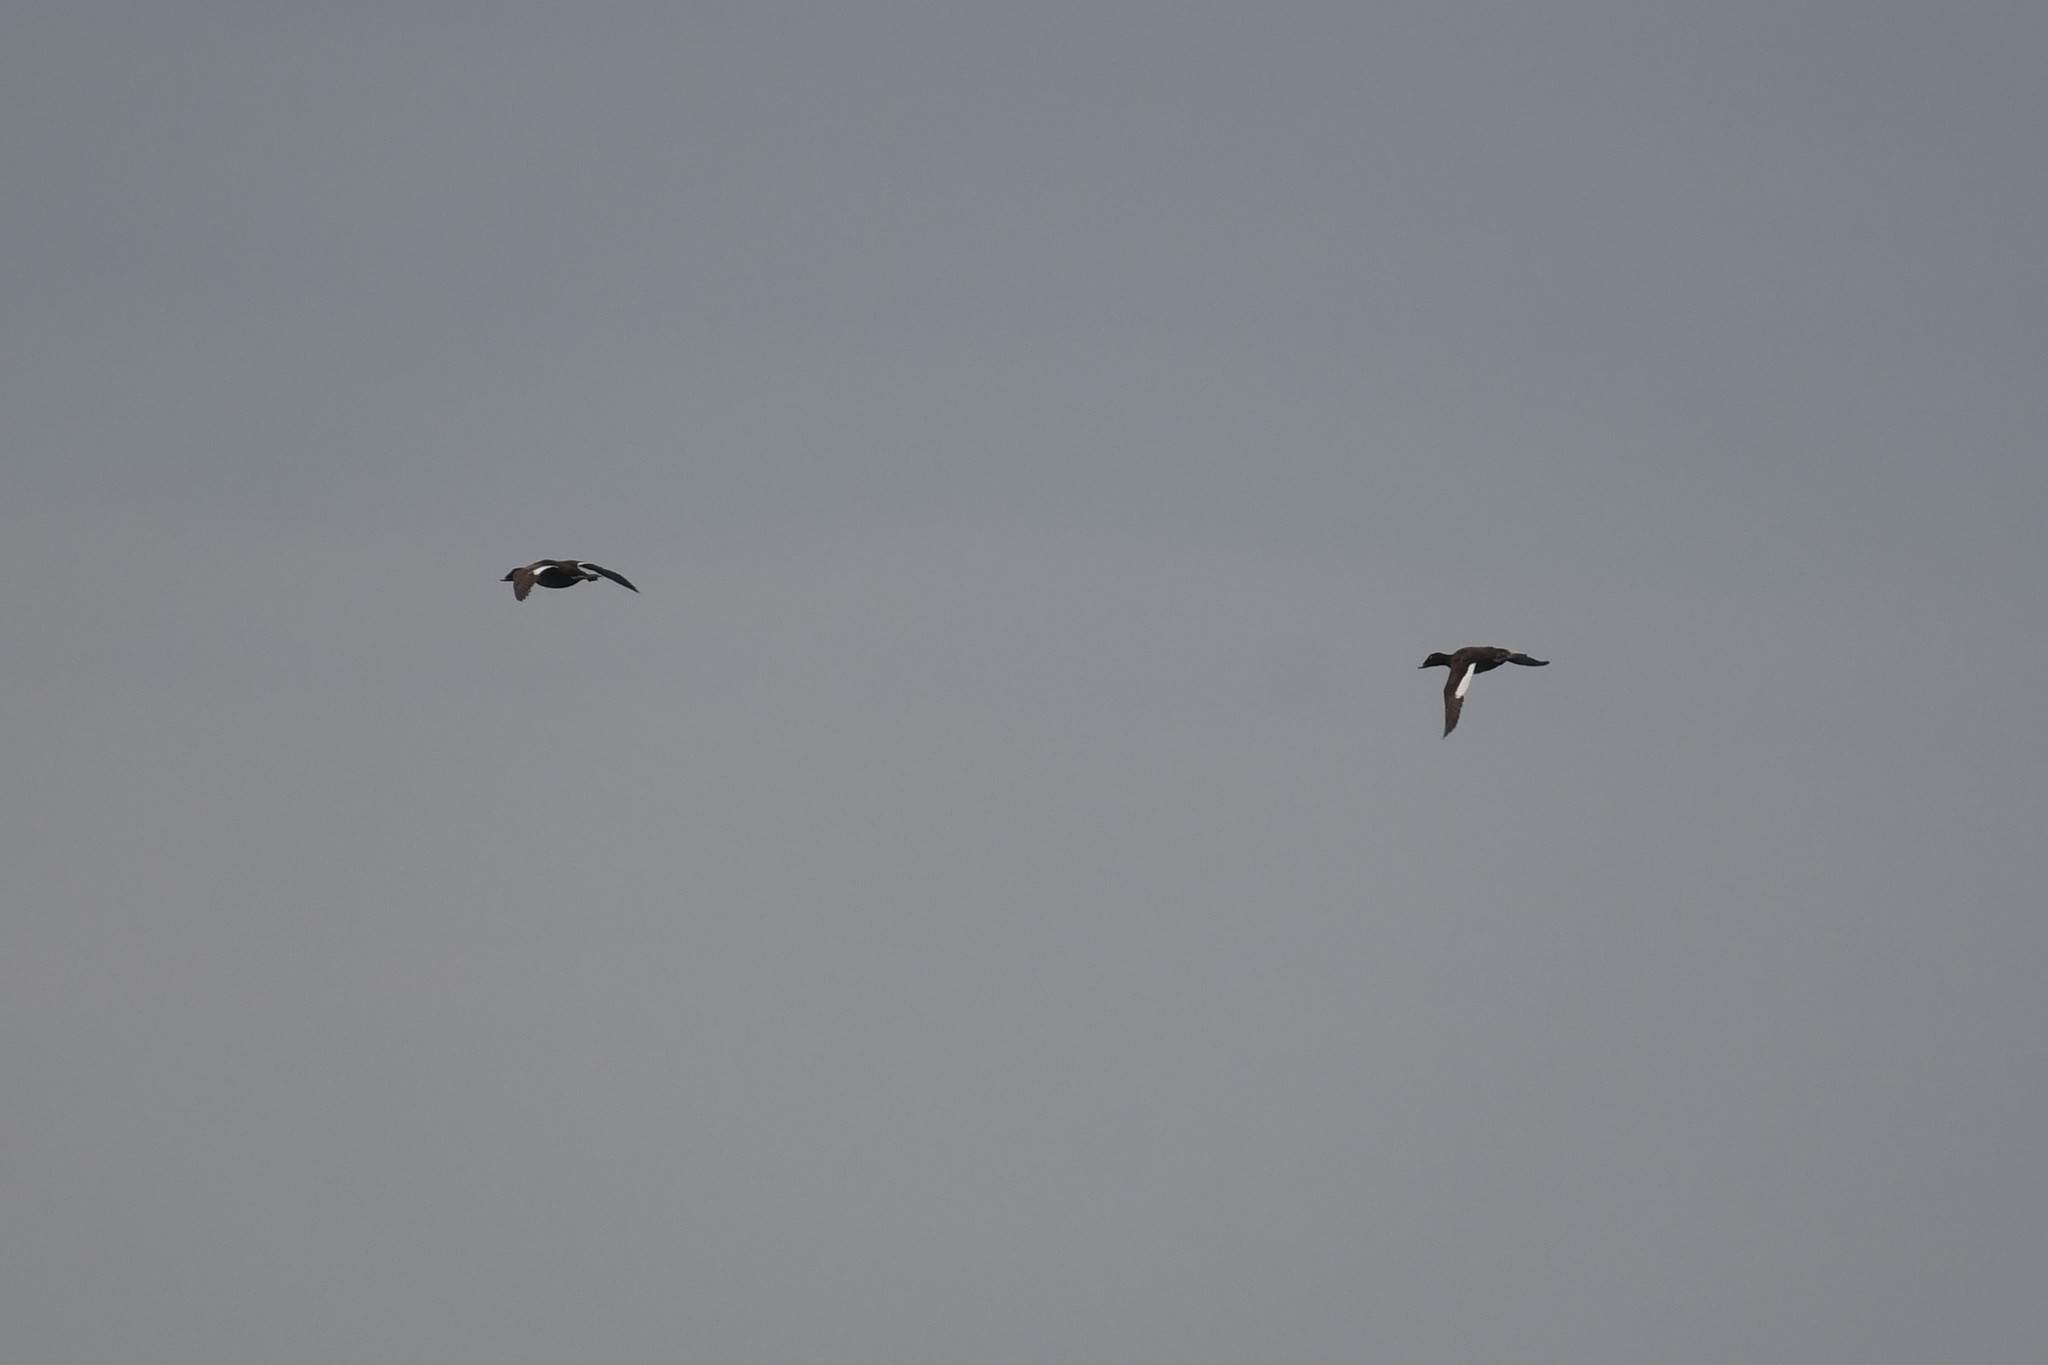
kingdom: Animalia
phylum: Chordata
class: Aves
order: Anseriformes
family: Anatidae
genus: Melanitta
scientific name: Melanitta deglandi
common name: White-winged scoter
